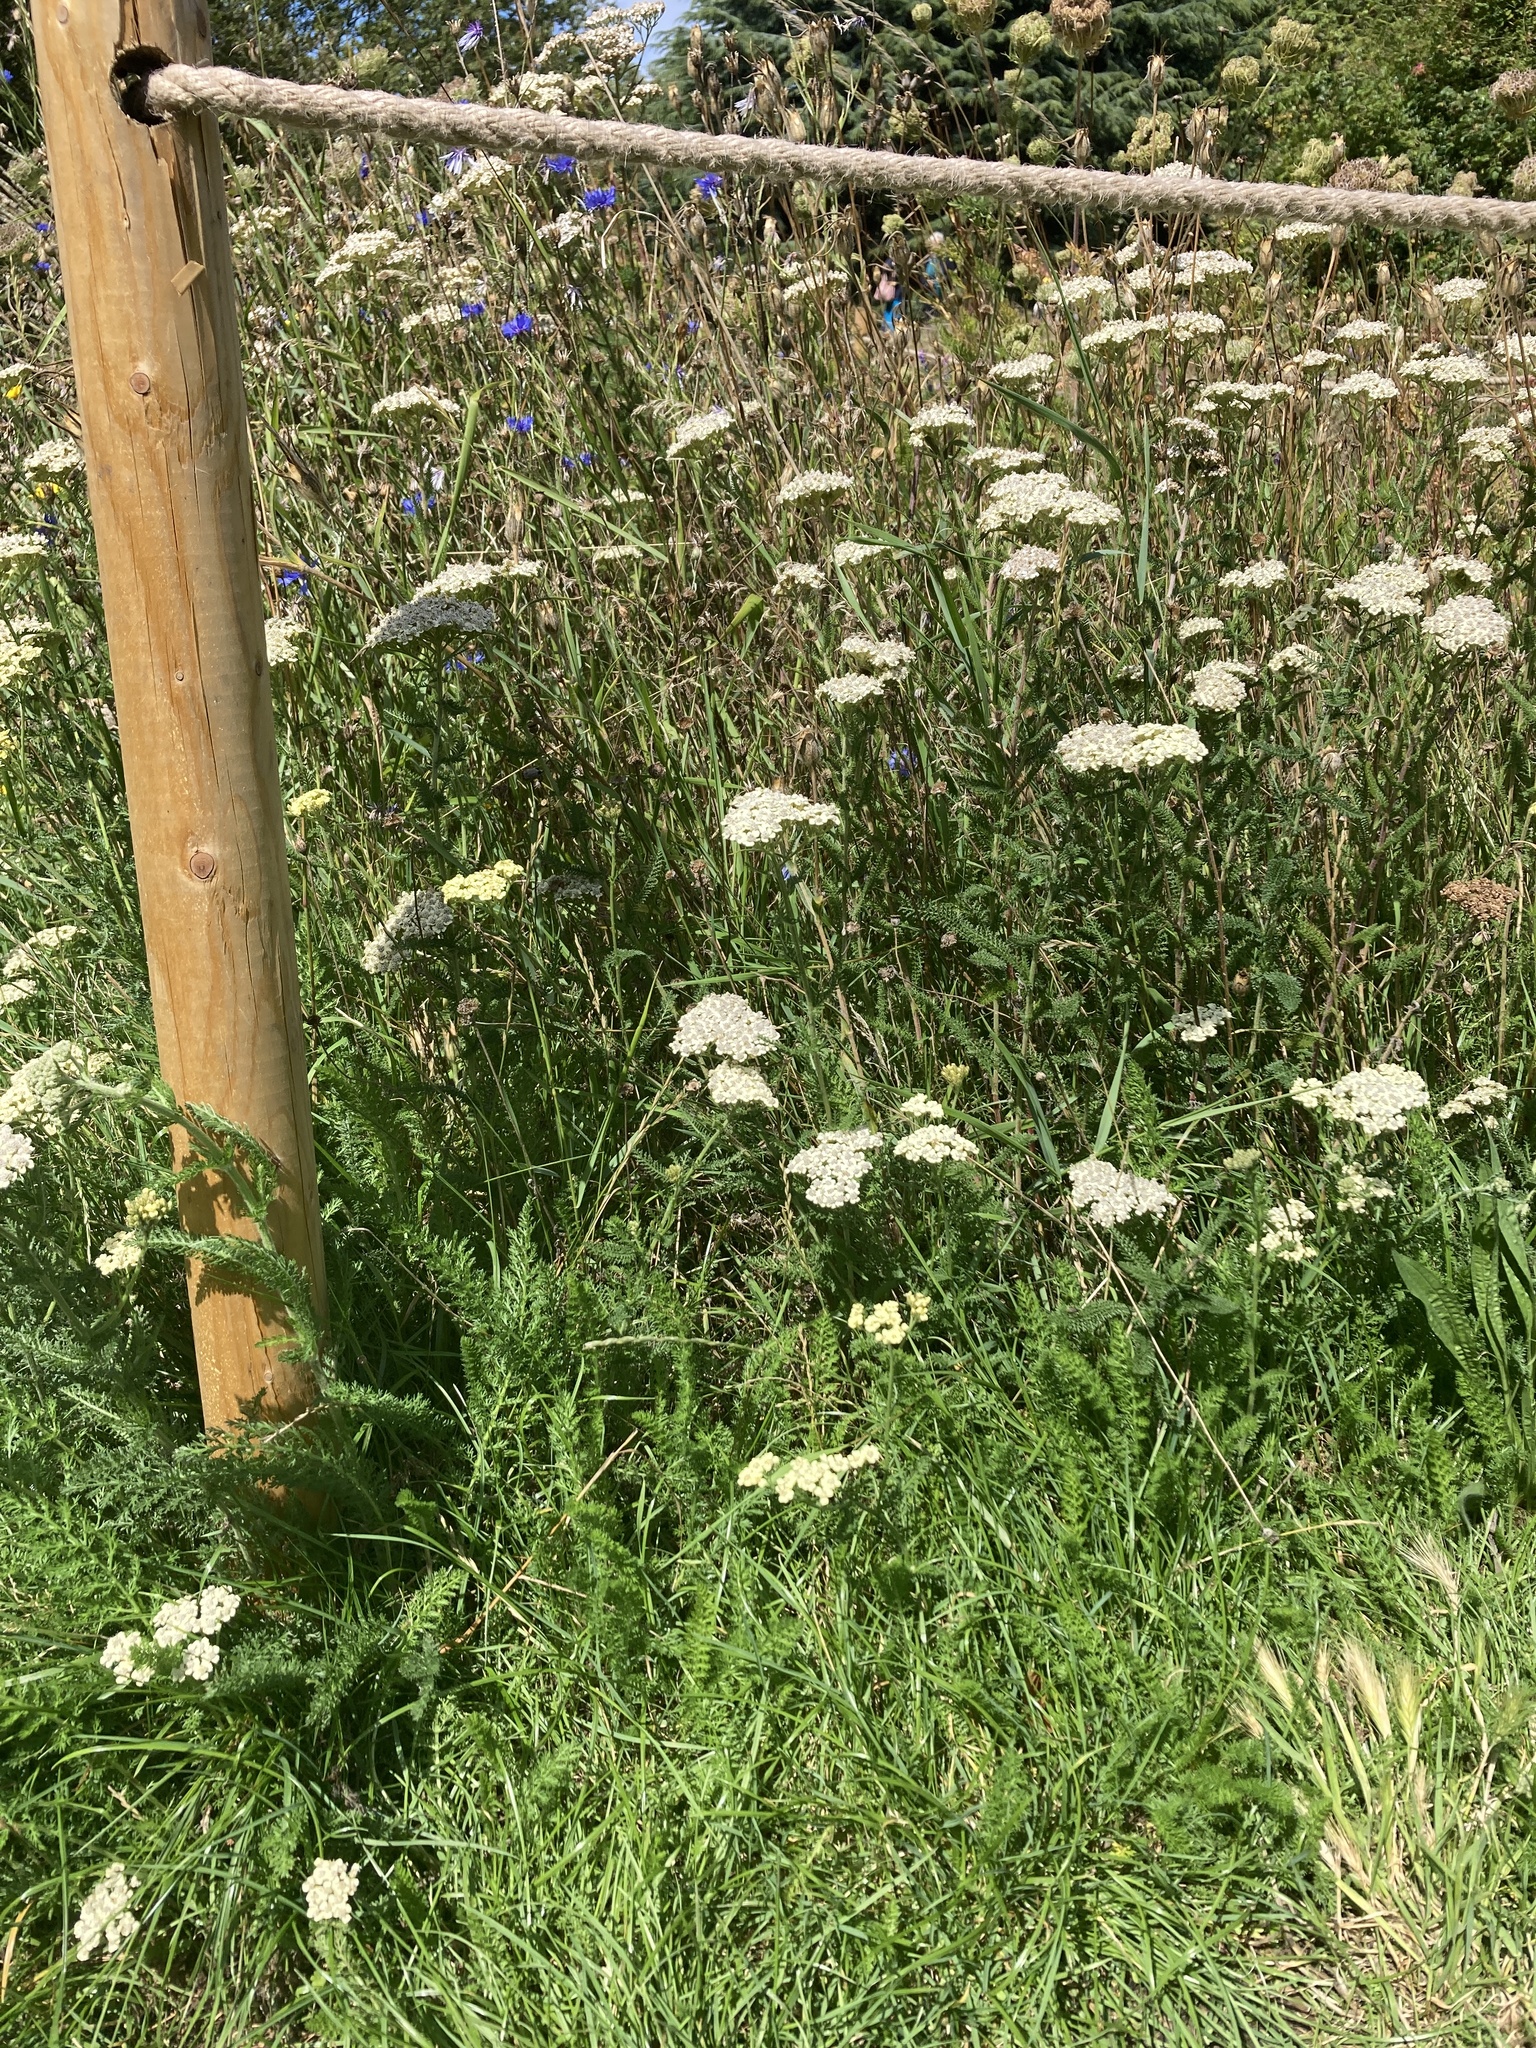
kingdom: Plantae
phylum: Tracheophyta
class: Magnoliopsida
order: Asterales
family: Asteraceae
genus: Achillea
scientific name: Achillea millefolium
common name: Yarrow
